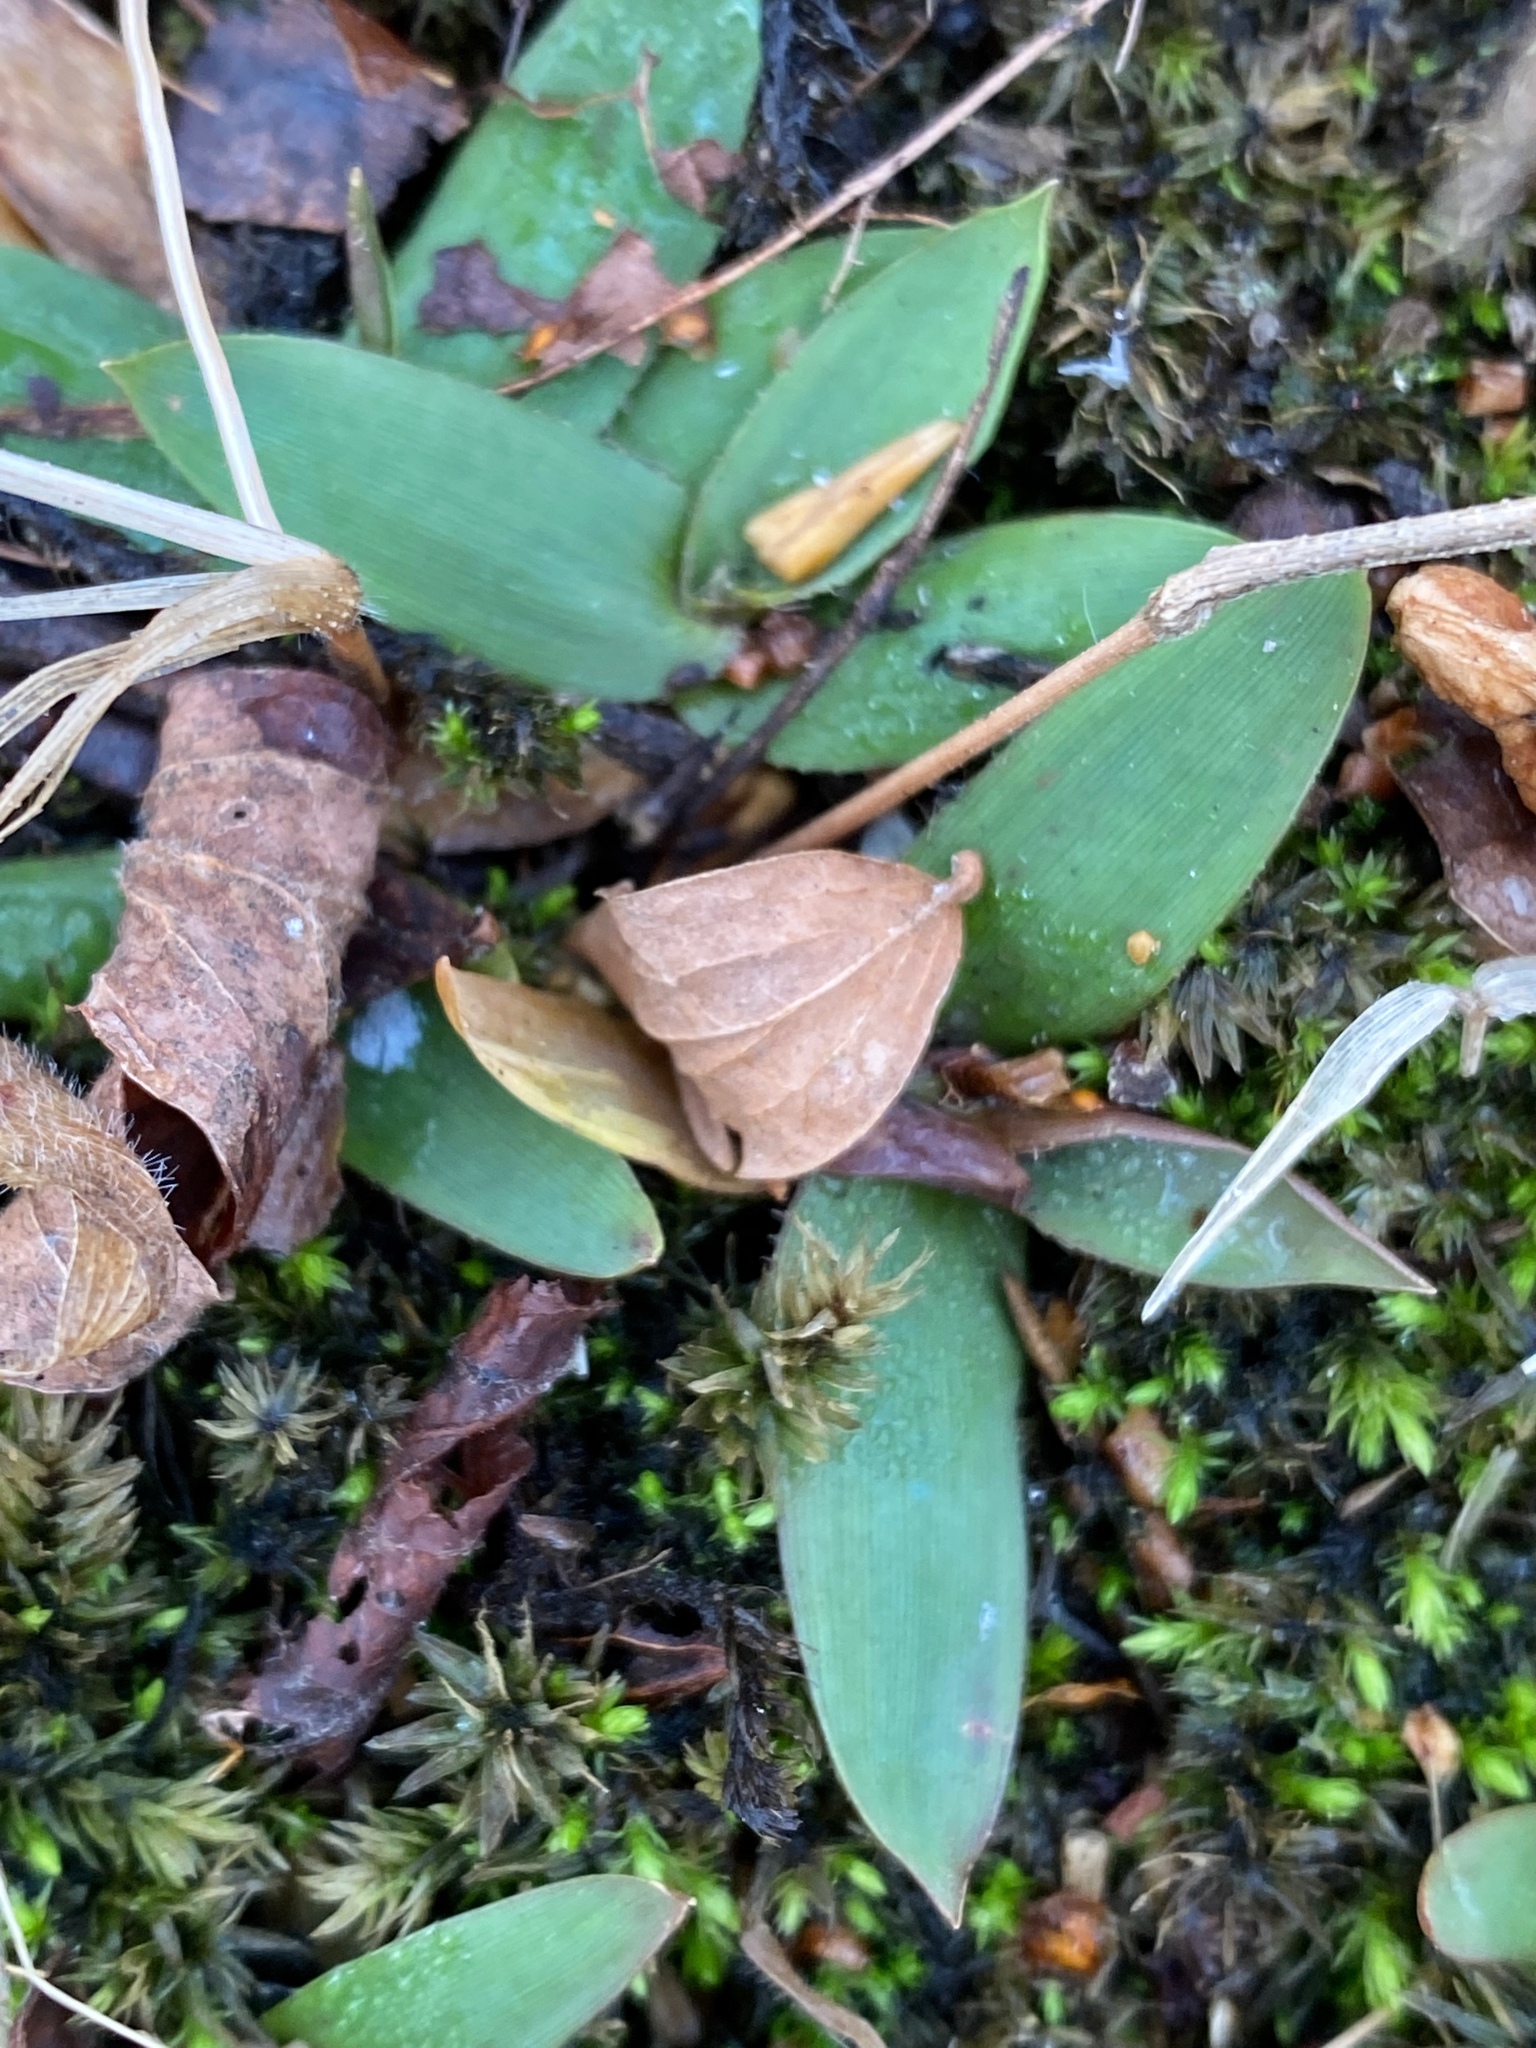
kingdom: Plantae
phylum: Tracheophyta
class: Liliopsida
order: Poales
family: Poaceae
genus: Dichanthelium
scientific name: Dichanthelium clandestinum
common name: Deer-tongue grass
